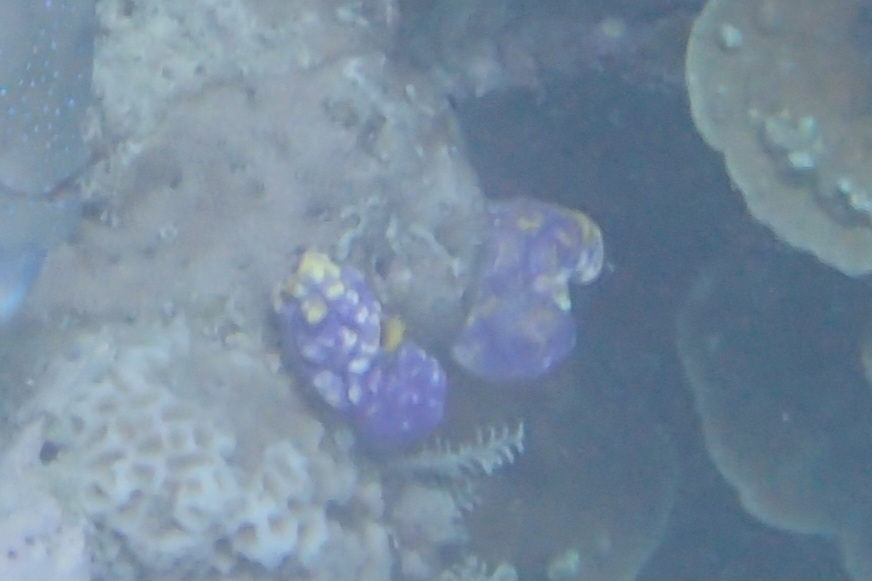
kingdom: Animalia
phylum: Chordata
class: Ascidiacea
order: Stolidobranchia
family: Styelidae
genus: Polycarpa
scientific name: Polycarpa aurata
